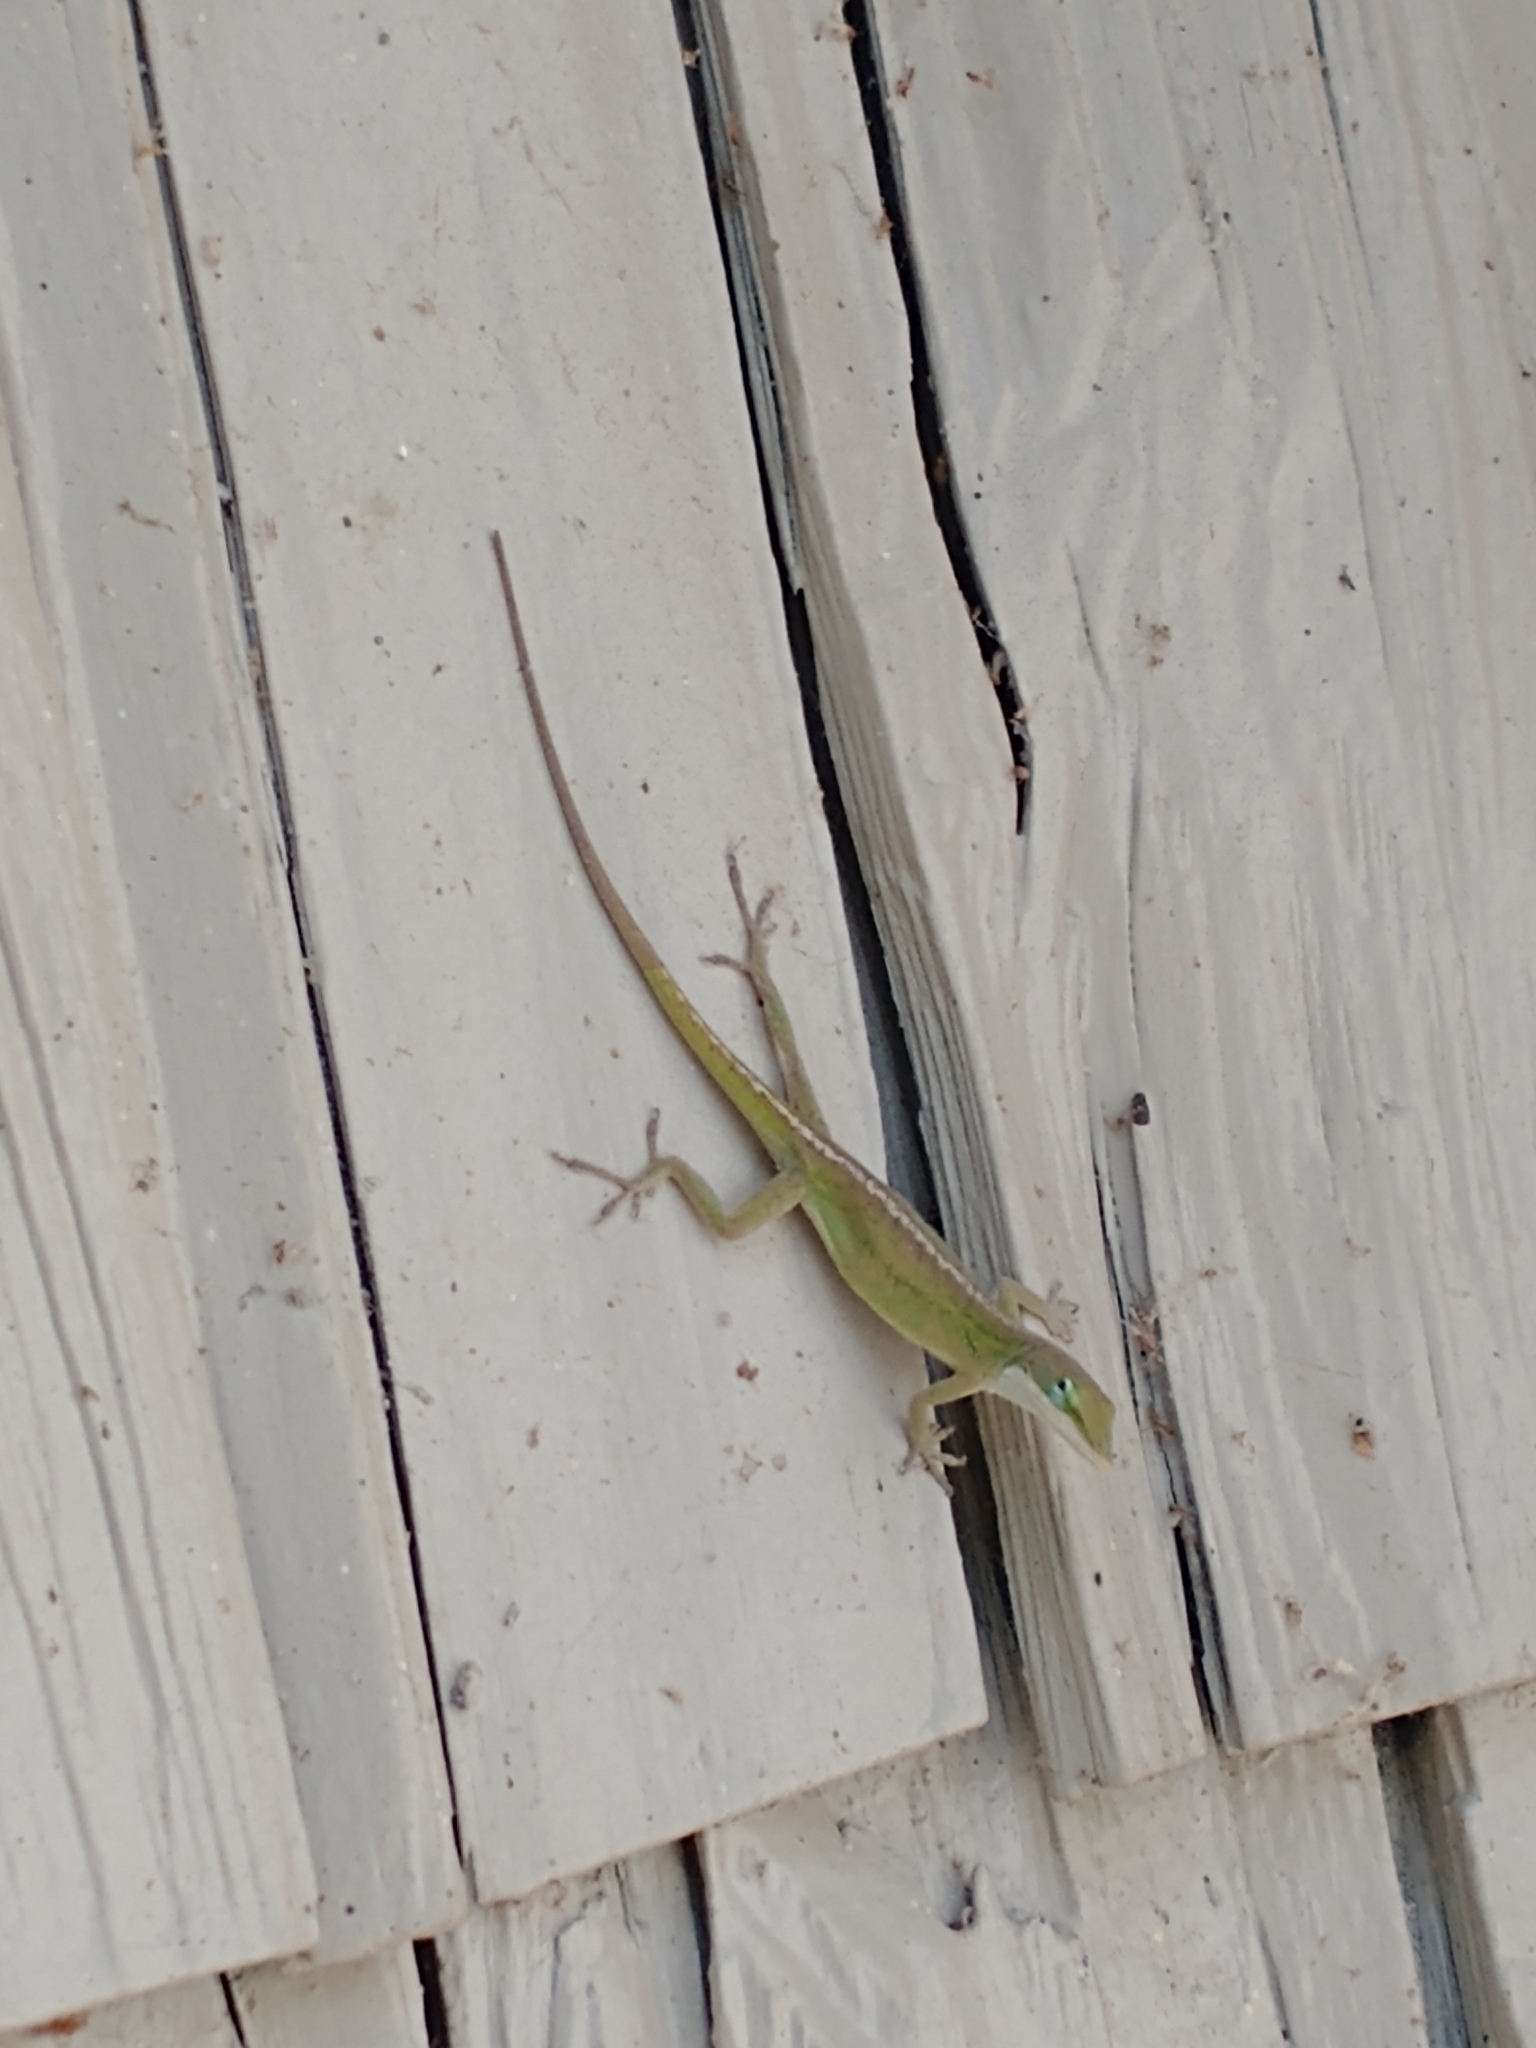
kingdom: Animalia
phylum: Chordata
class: Squamata
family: Dactyloidae
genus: Anolis
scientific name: Anolis carolinensis
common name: Green anole
